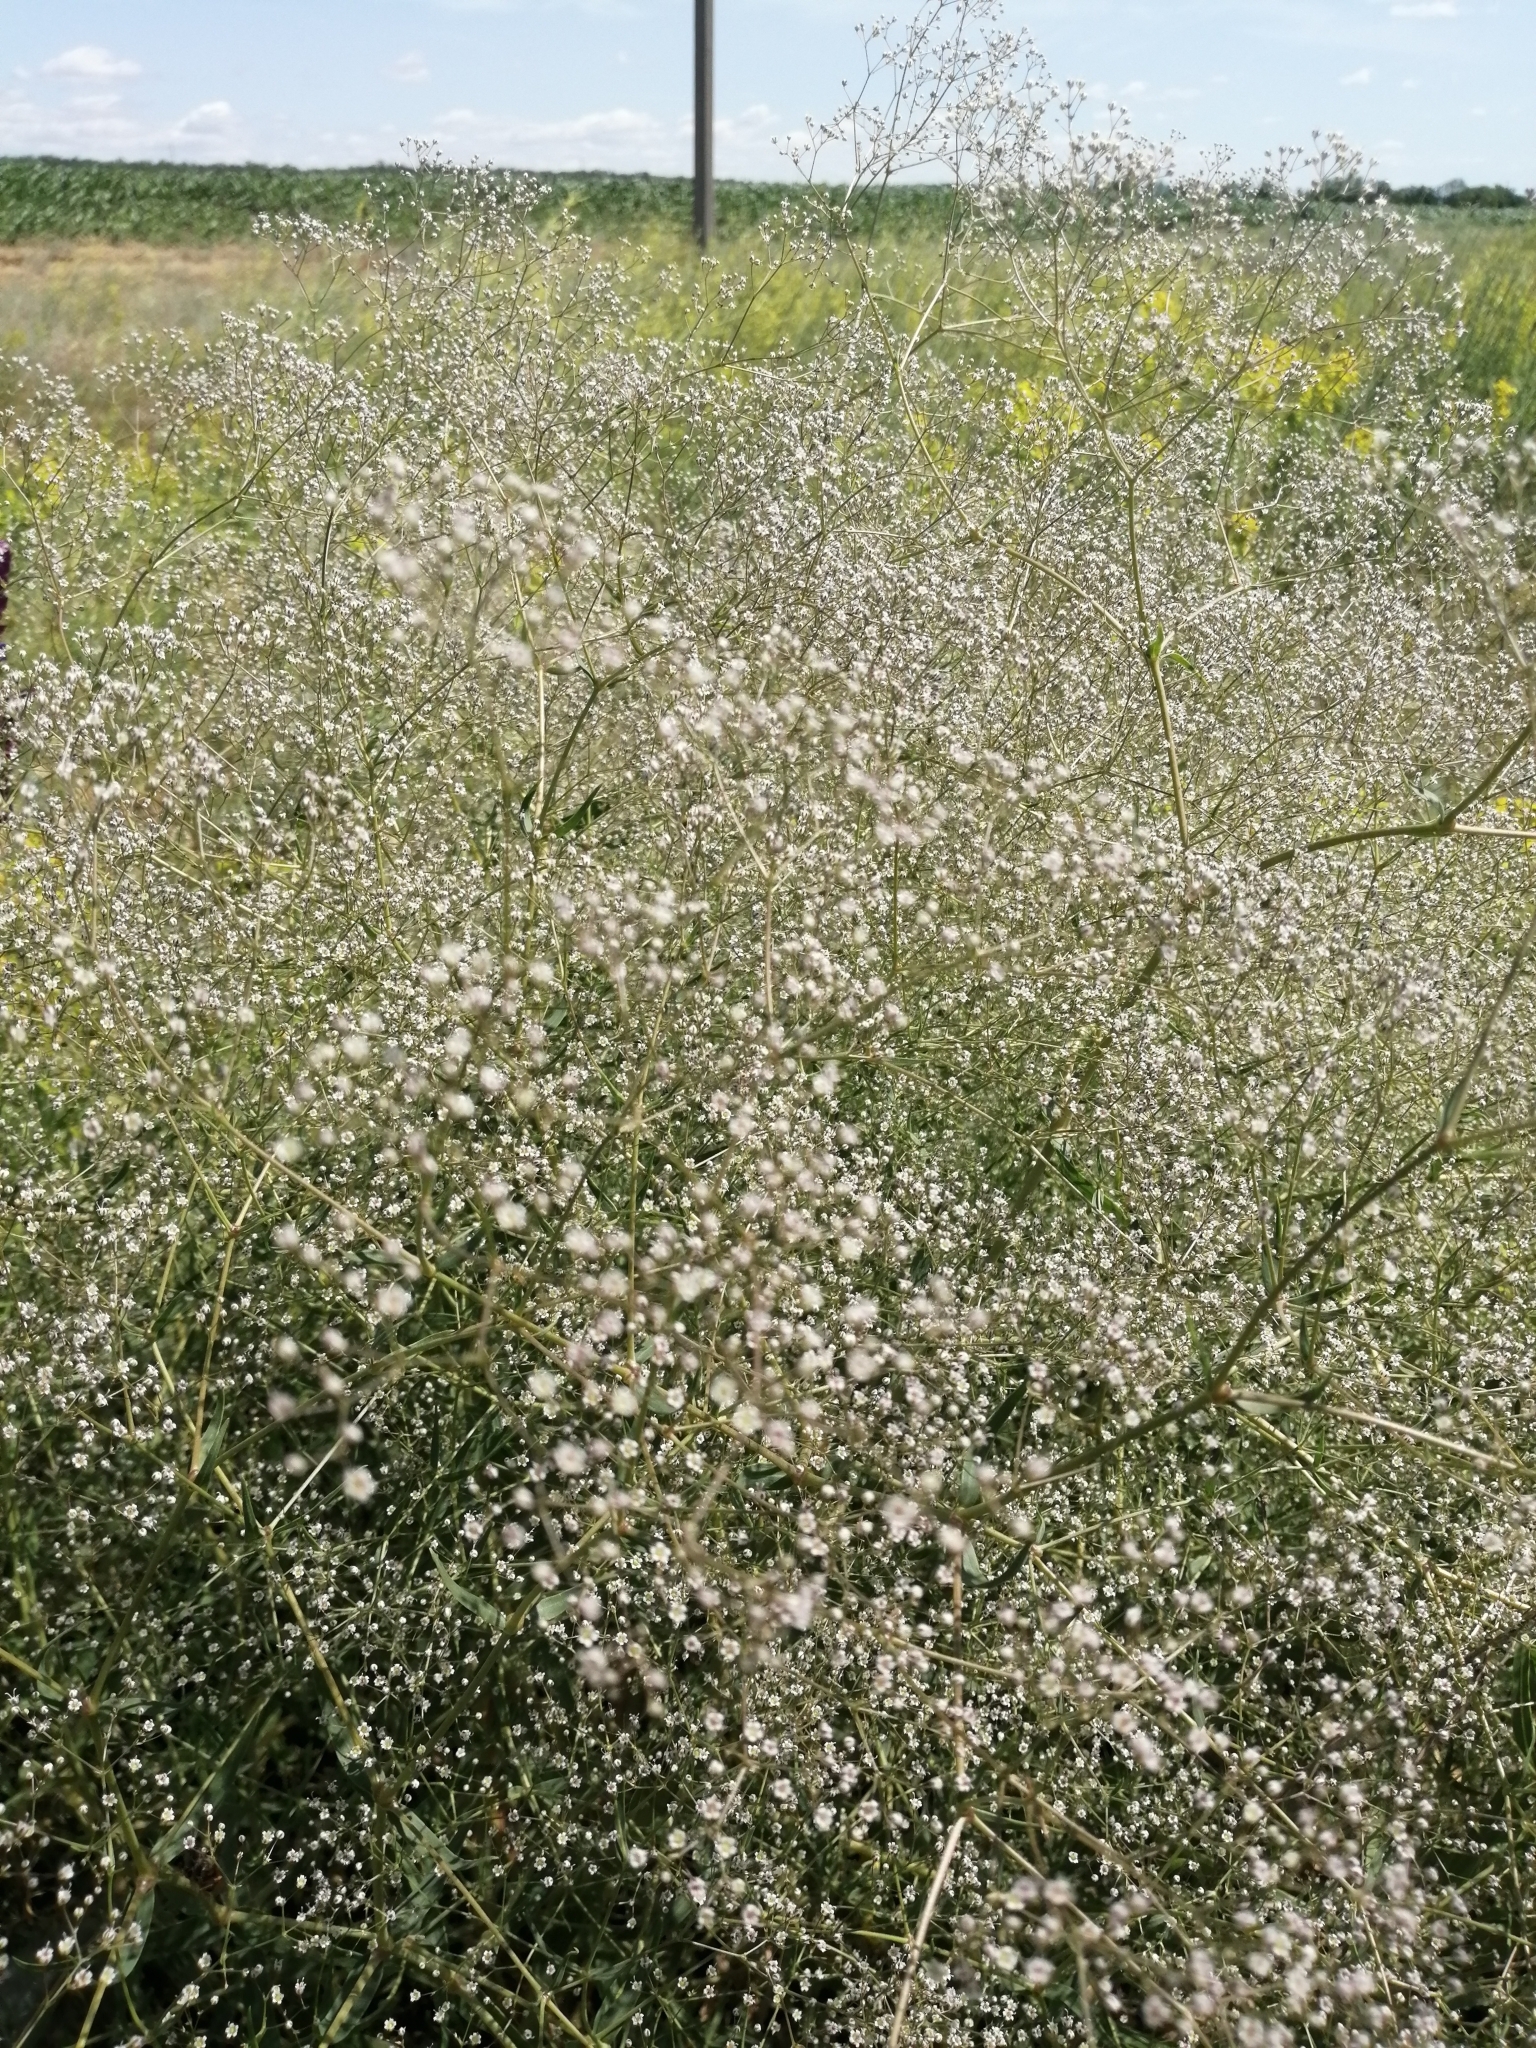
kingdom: Plantae
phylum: Tracheophyta
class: Magnoliopsida
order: Caryophyllales
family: Caryophyllaceae
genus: Gypsophila
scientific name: Gypsophila paniculata
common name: Baby's-breath
